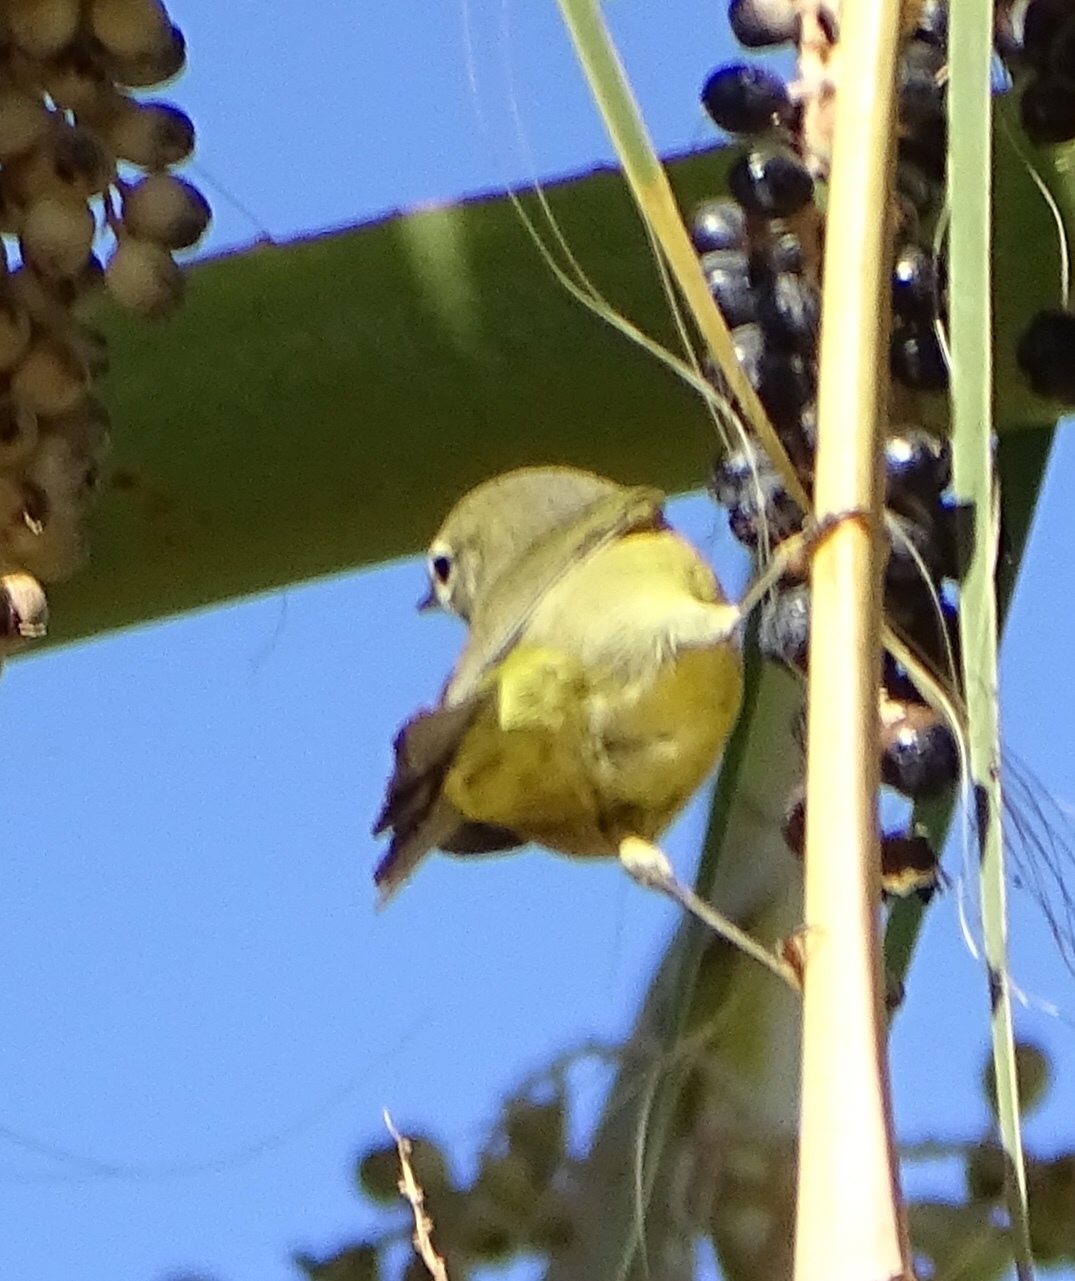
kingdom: Animalia
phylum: Chordata
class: Aves
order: Passeriformes
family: Parulidae
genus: Leiothlypis
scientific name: Leiothlypis celata
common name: Orange-crowned warbler
